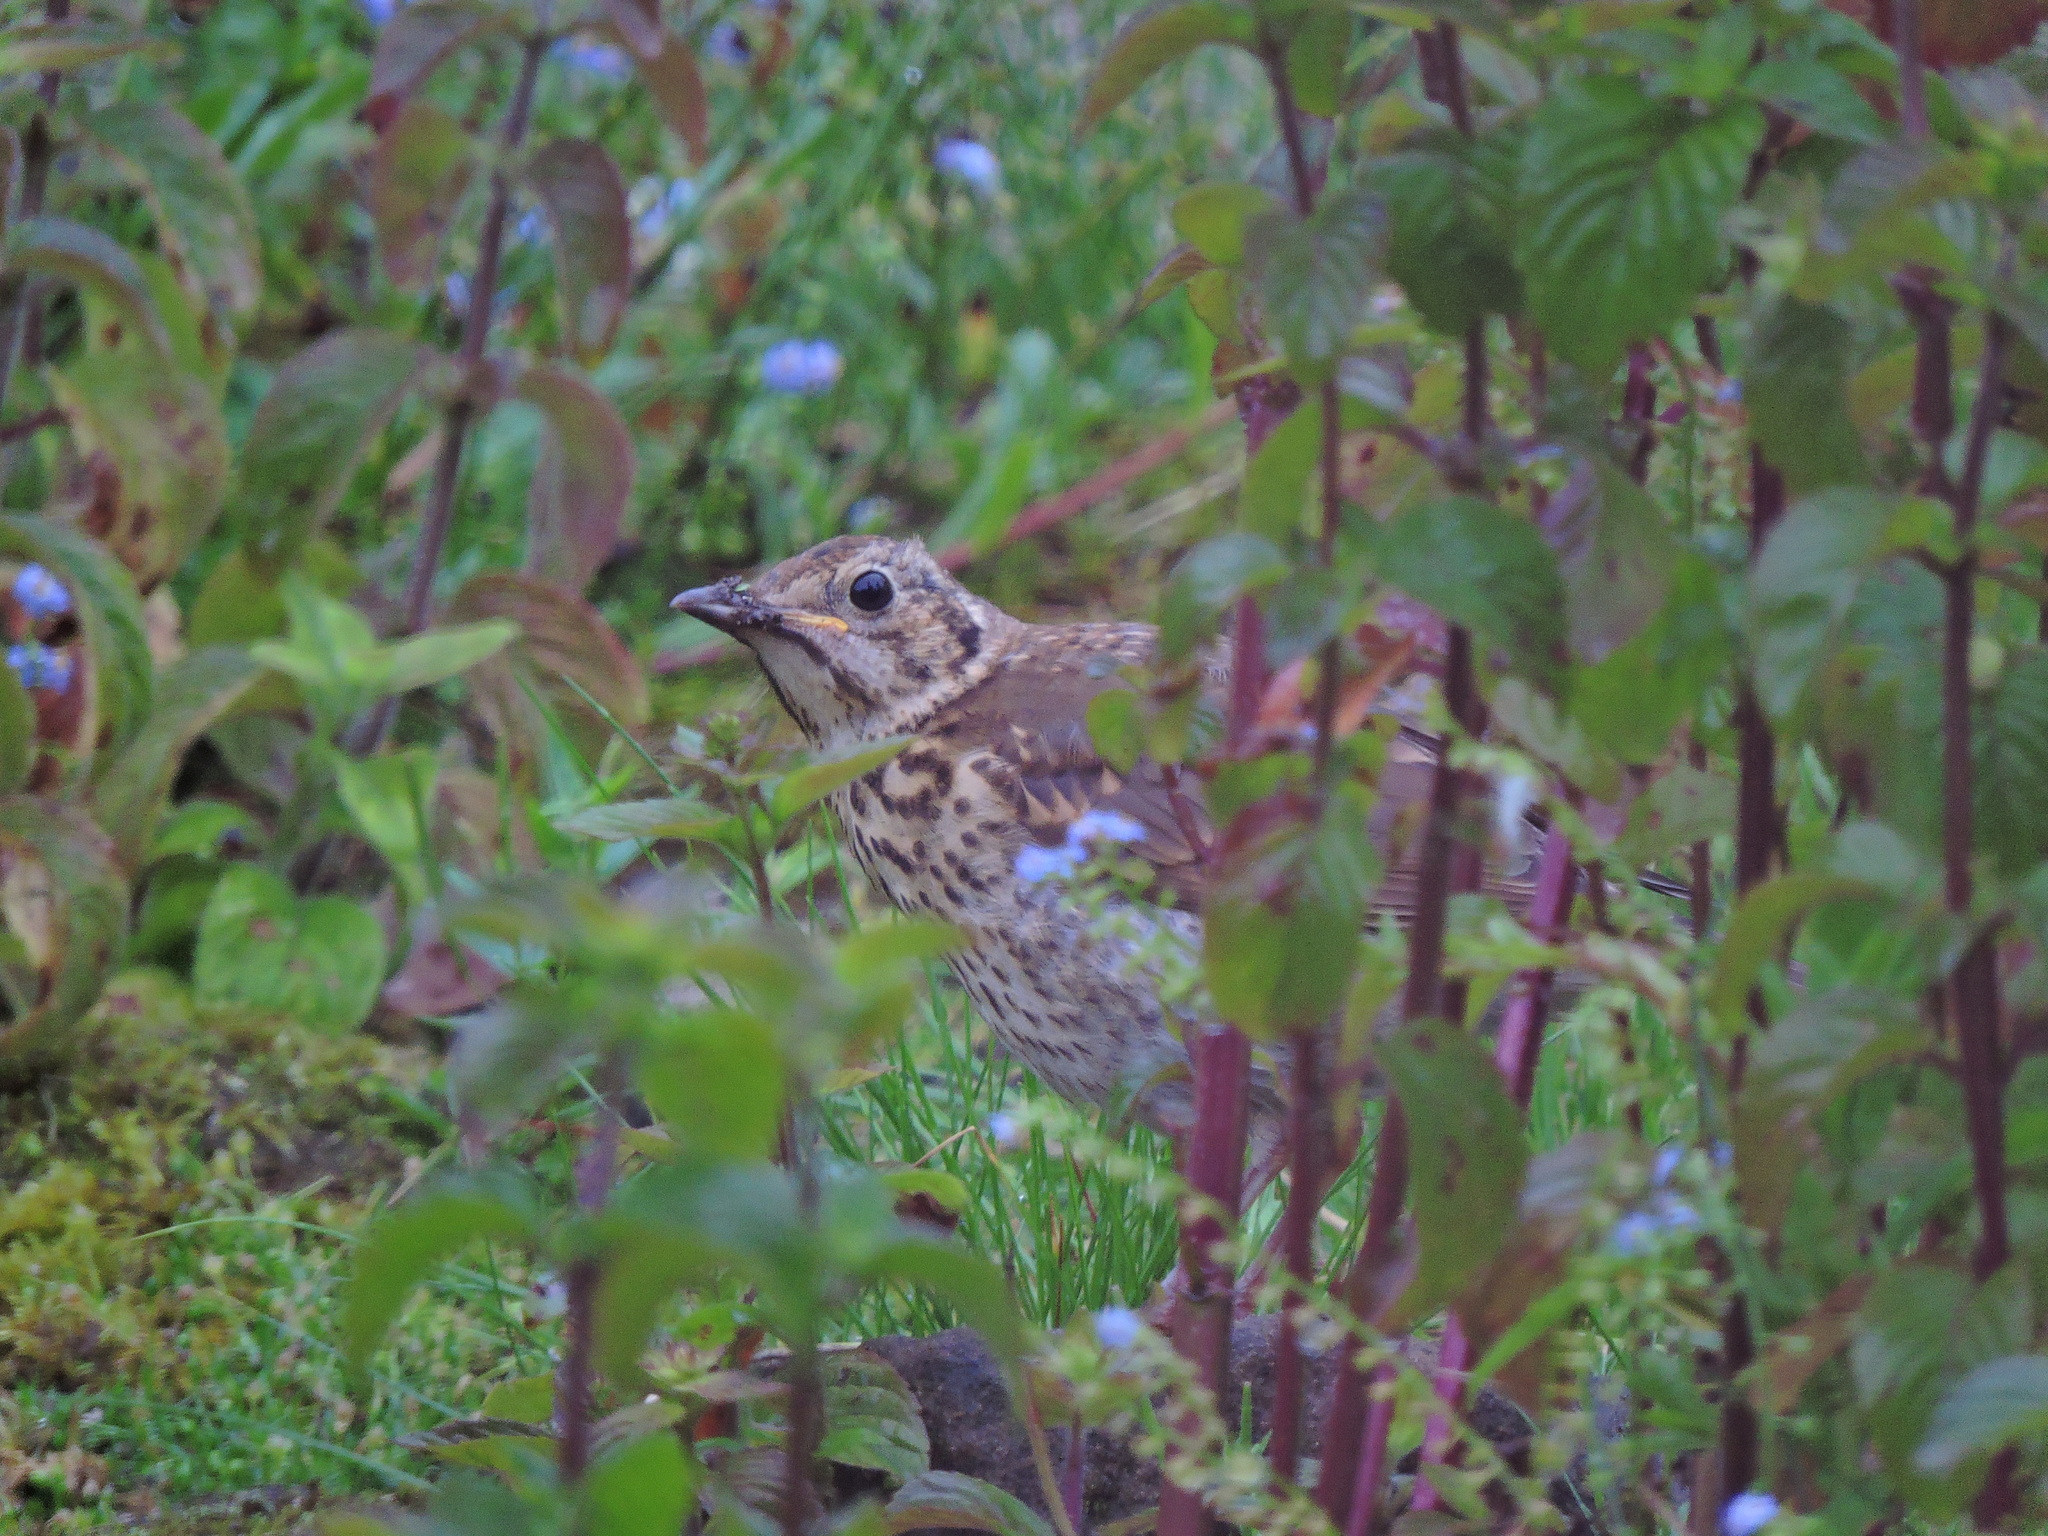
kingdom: Animalia
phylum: Chordata
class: Aves
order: Passeriformes
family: Turdidae
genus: Turdus
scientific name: Turdus philomelos
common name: Song thrush
